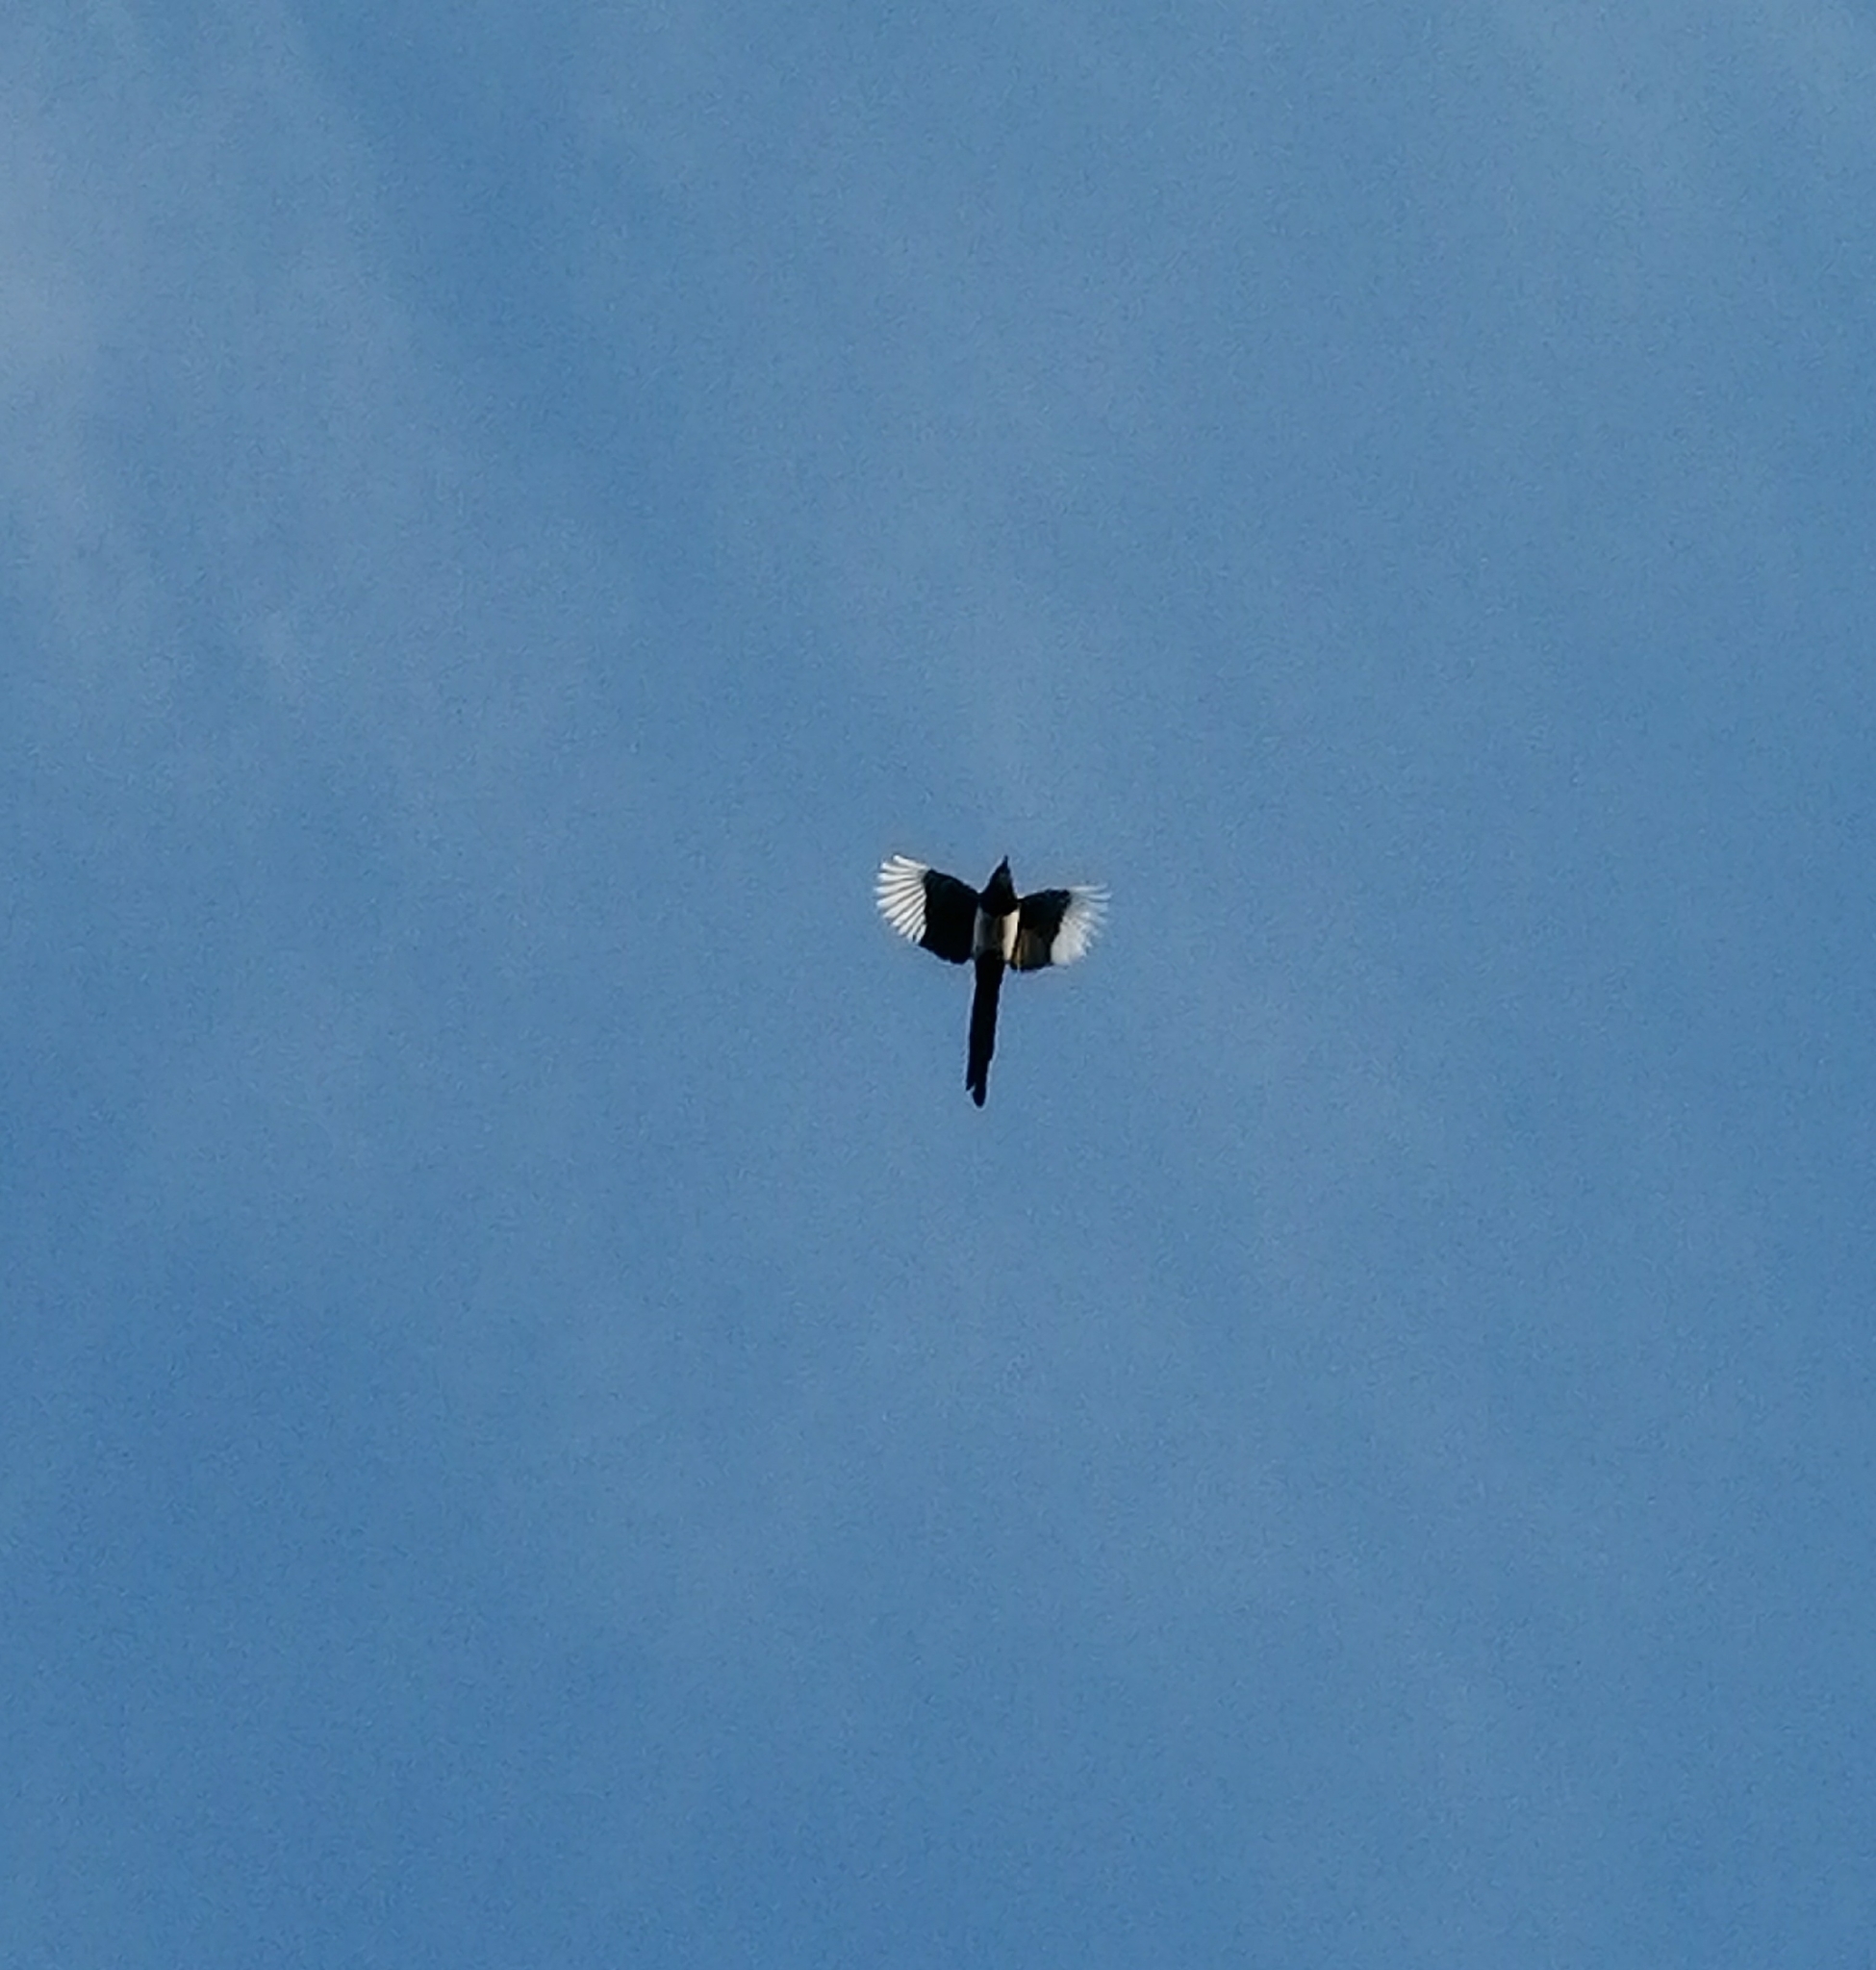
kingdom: Animalia
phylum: Chordata
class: Aves
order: Passeriformes
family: Corvidae
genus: Pica
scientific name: Pica pica
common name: Eurasian magpie
